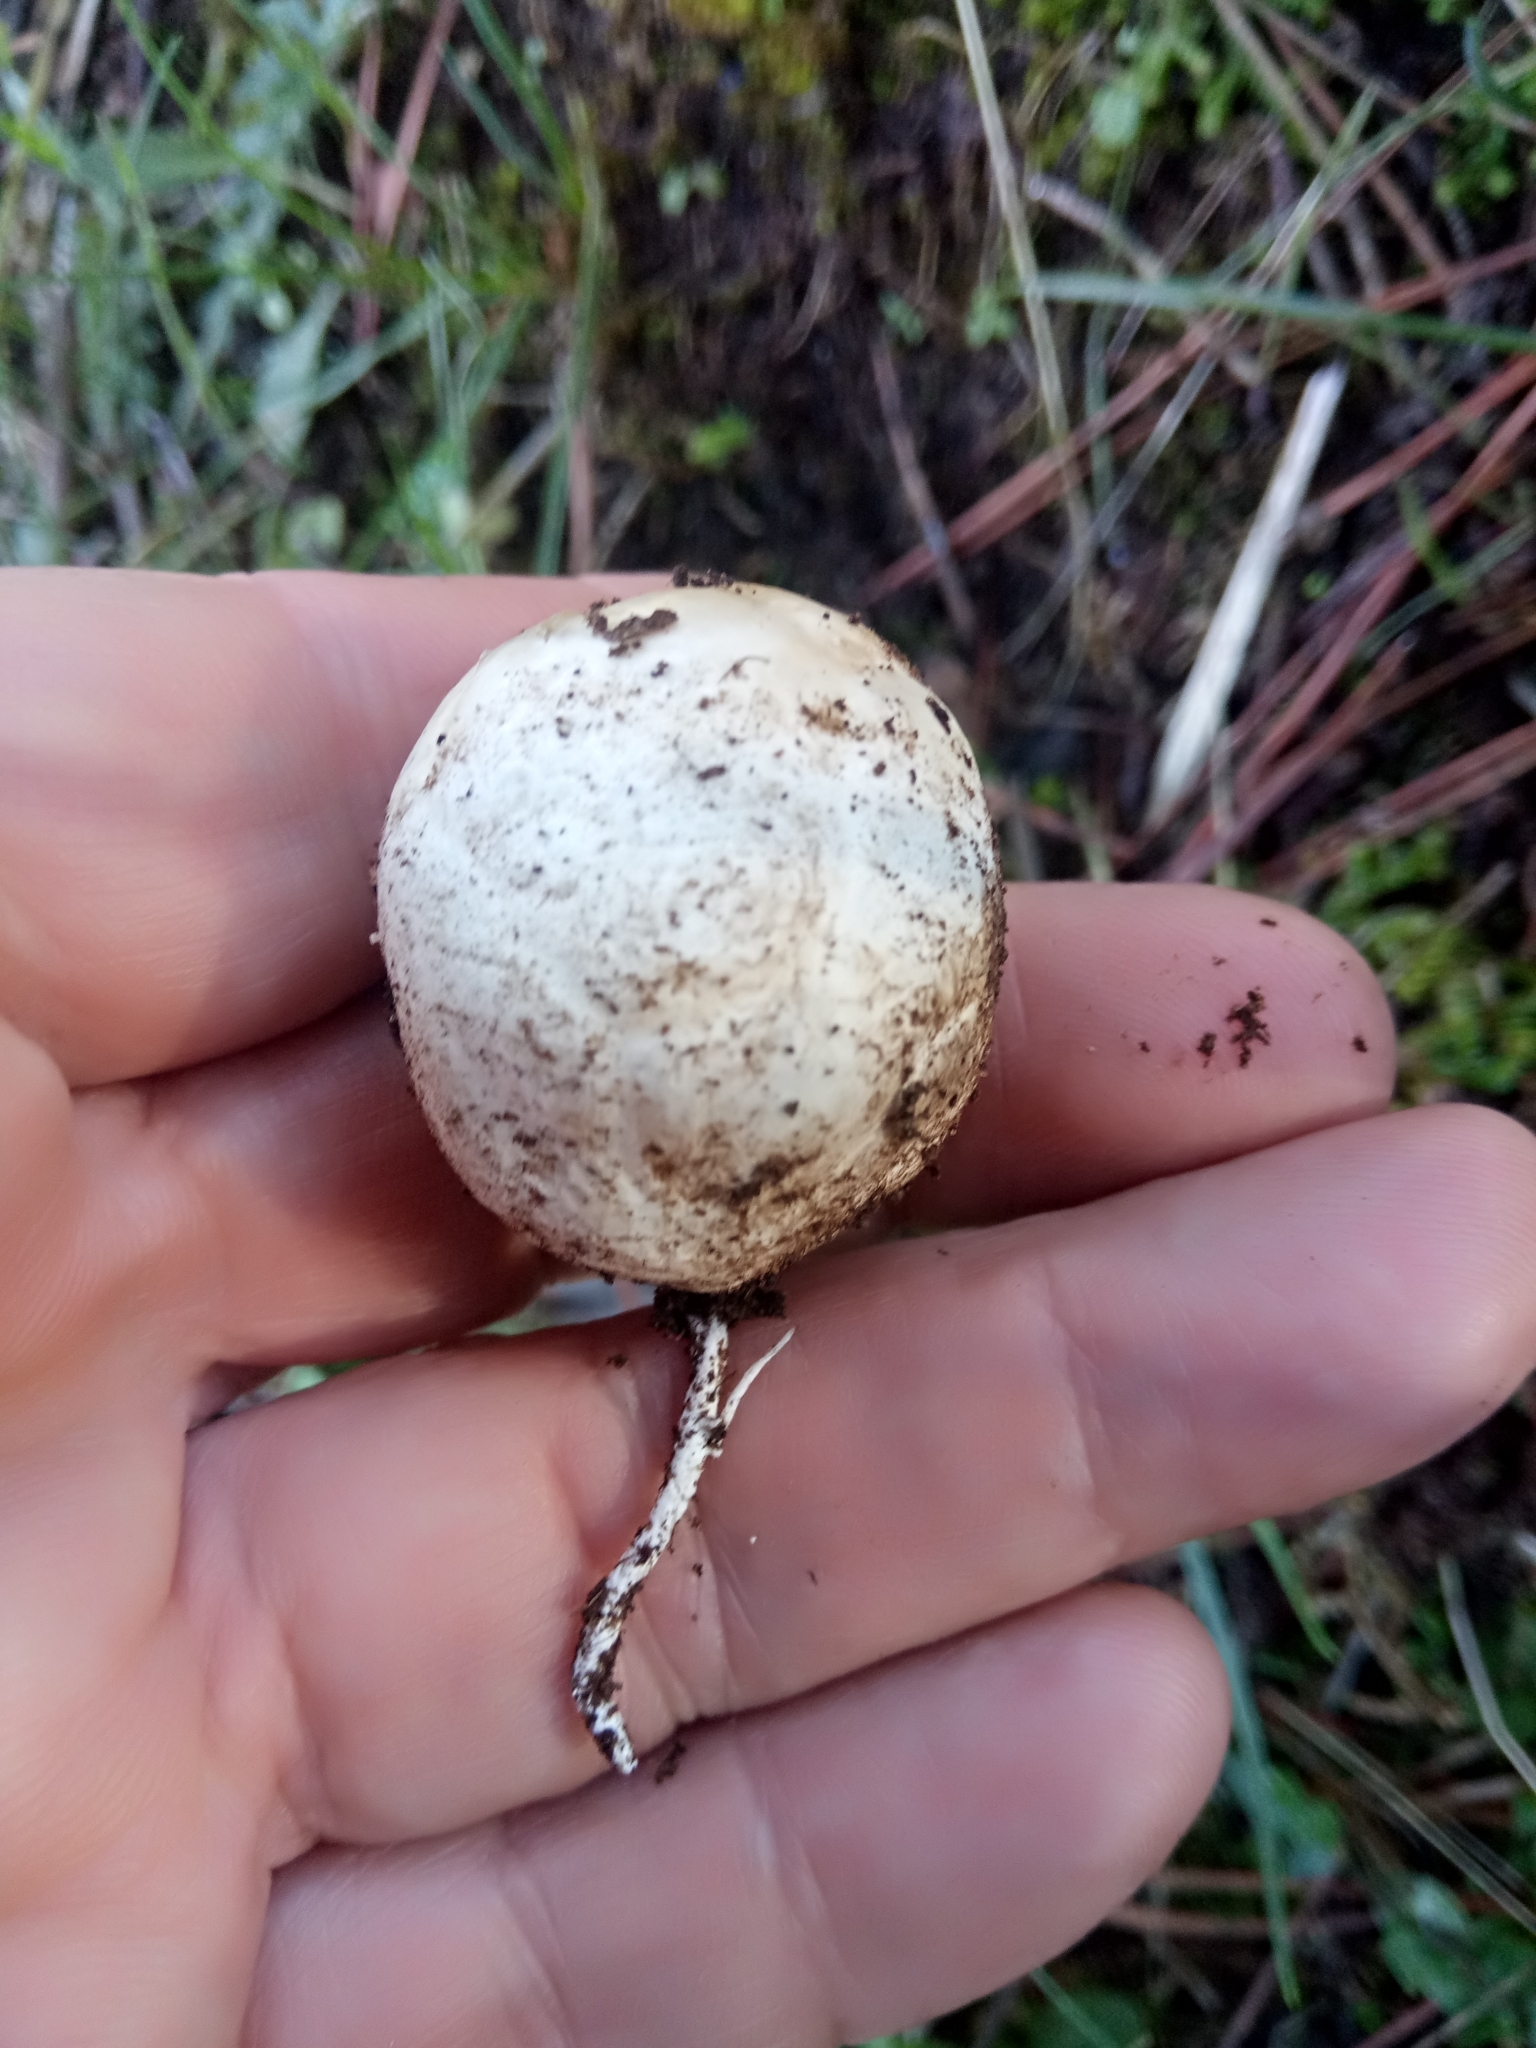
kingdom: Fungi
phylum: Basidiomycota
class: Agaricomycetes
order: Phallales
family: Phallaceae
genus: Clathrus
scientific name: Clathrus ruber
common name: Red cage
